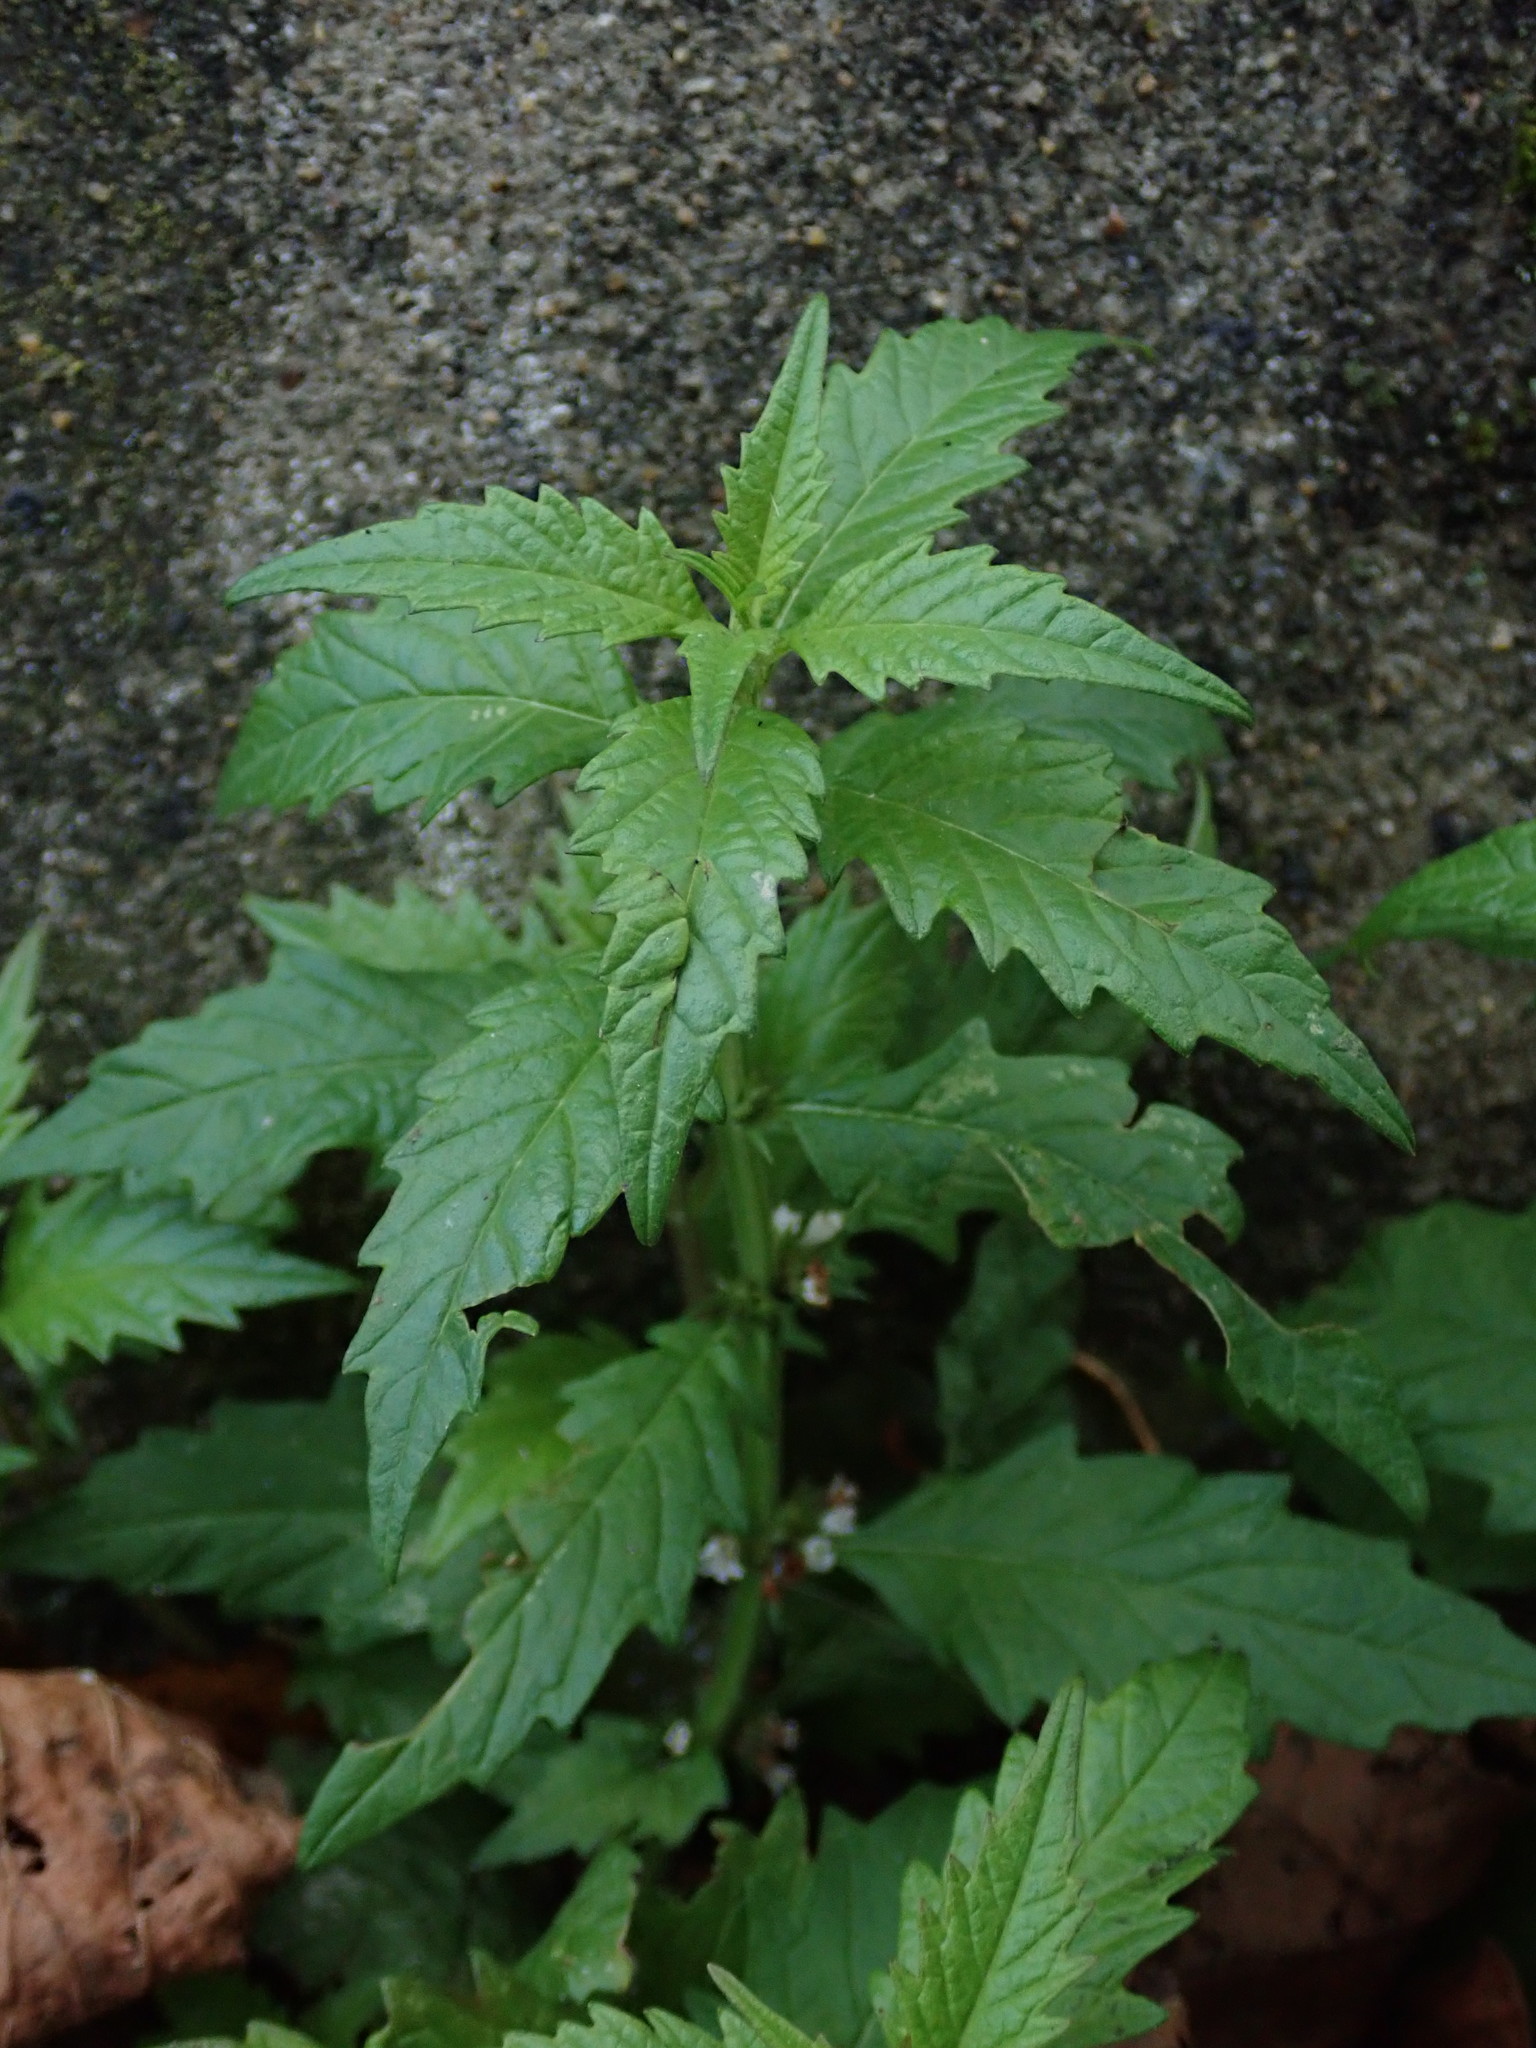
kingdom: Plantae
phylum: Tracheophyta
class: Magnoliopsida
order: Lamiales
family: Lamiaceae
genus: Lycopus
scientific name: Lycopus europaeus
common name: European bugleweed
